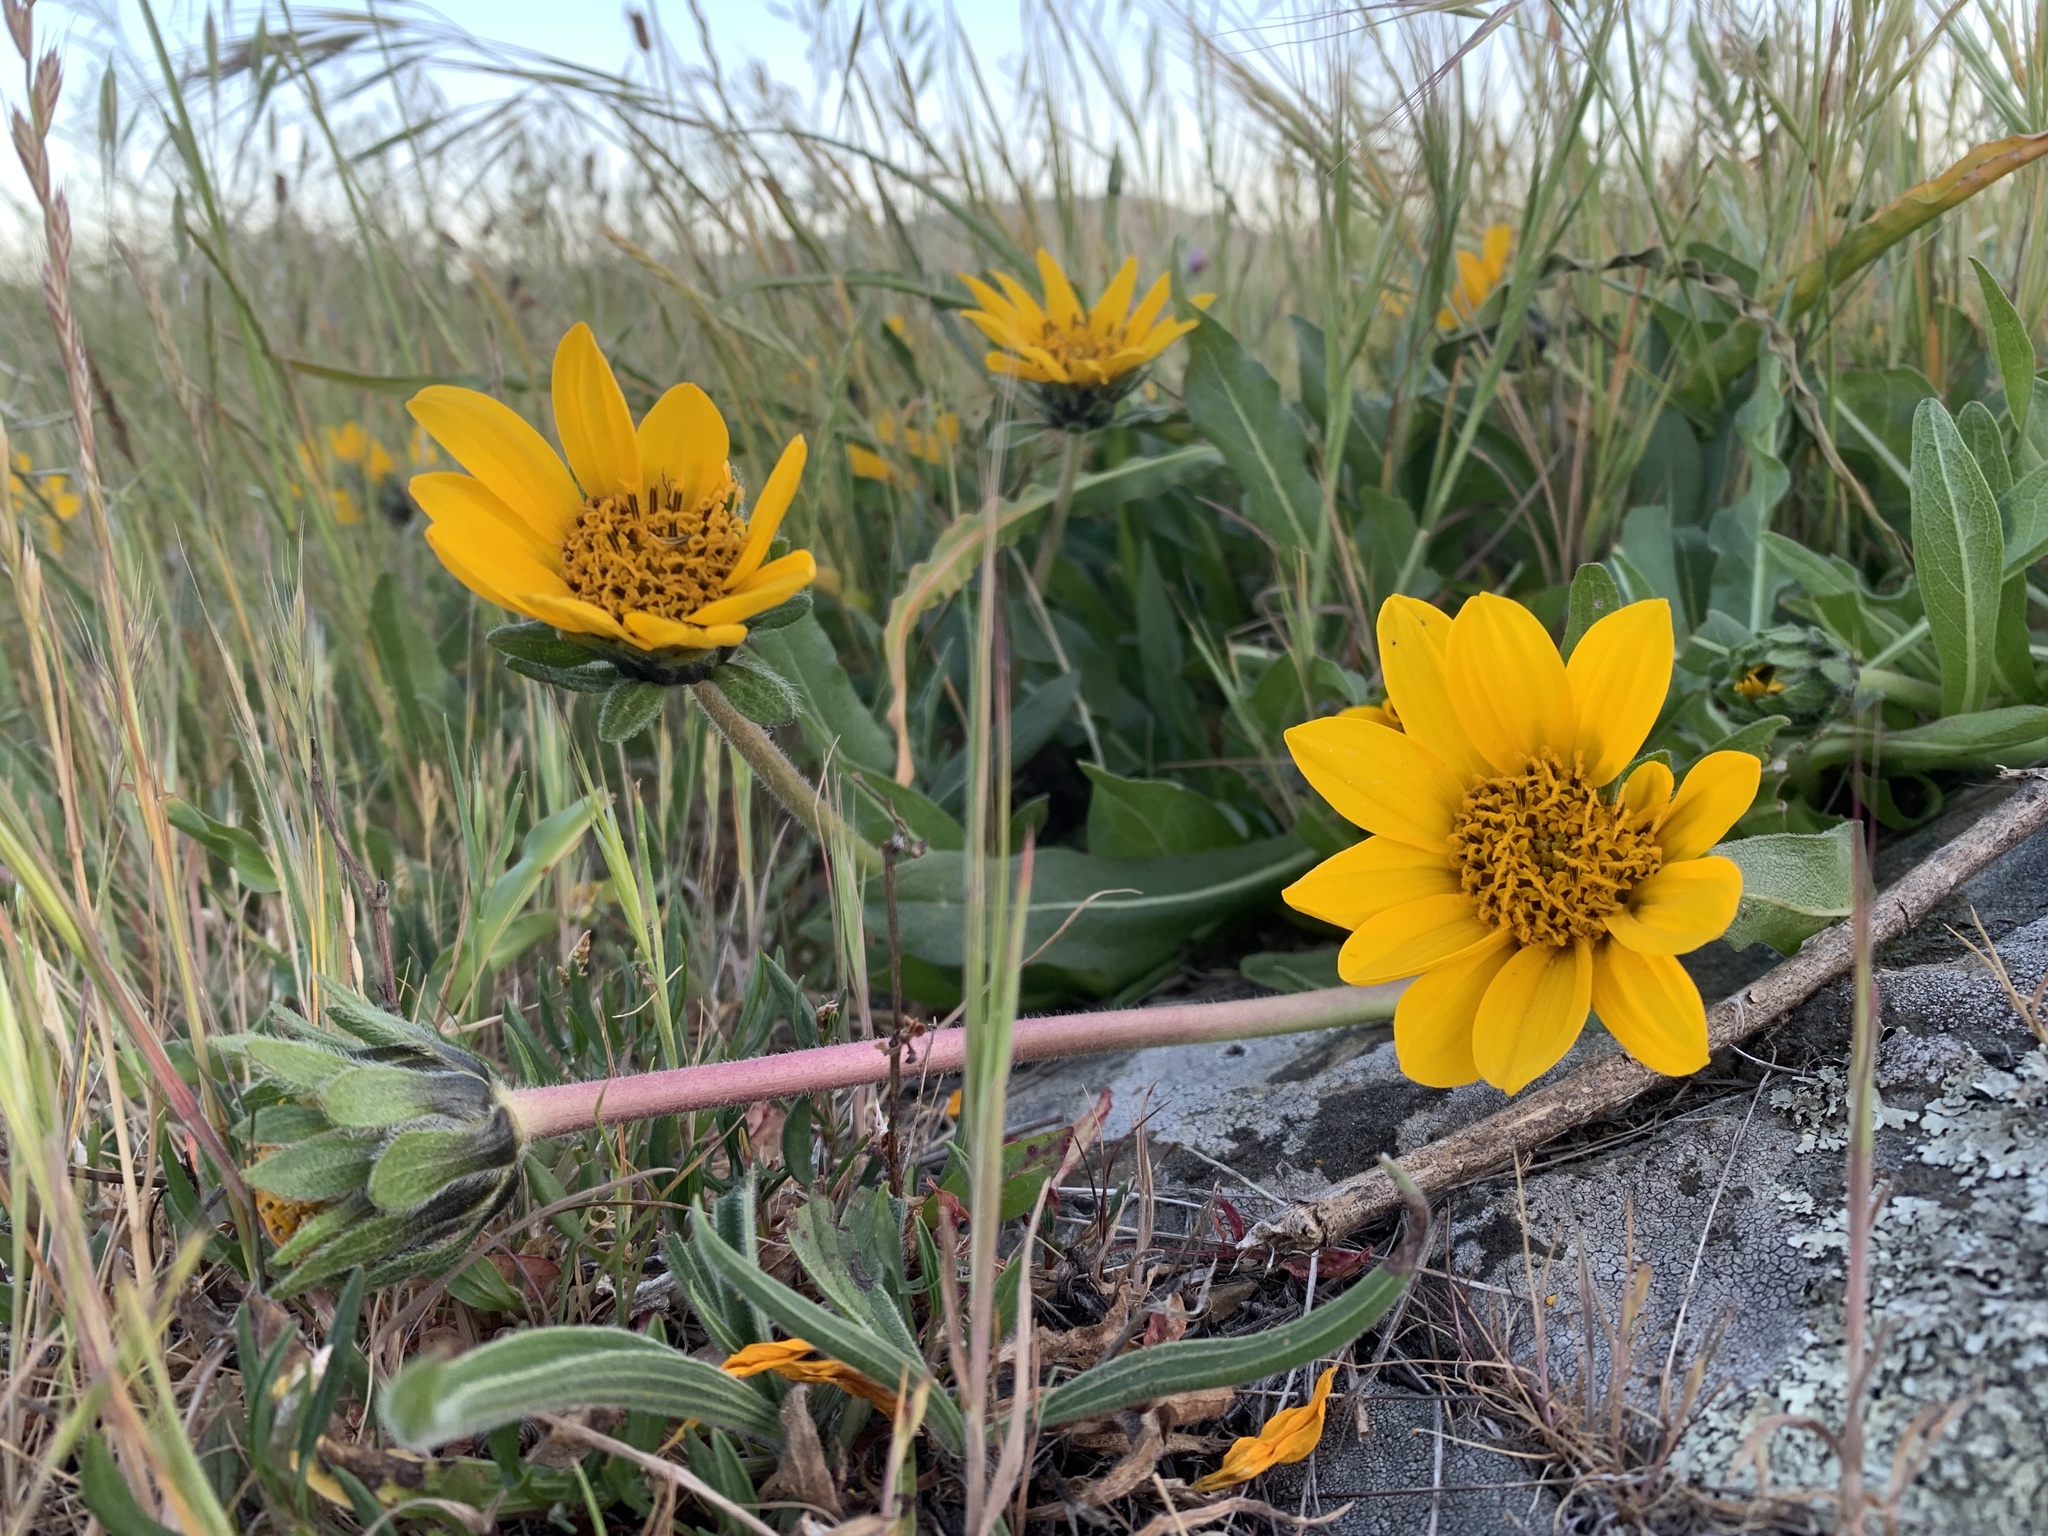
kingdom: Plantae
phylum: Tracheophyta
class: Magnoliopsida
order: Asterales
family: Asteraceae
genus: Wyethia
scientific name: Wyethia angustifolia
